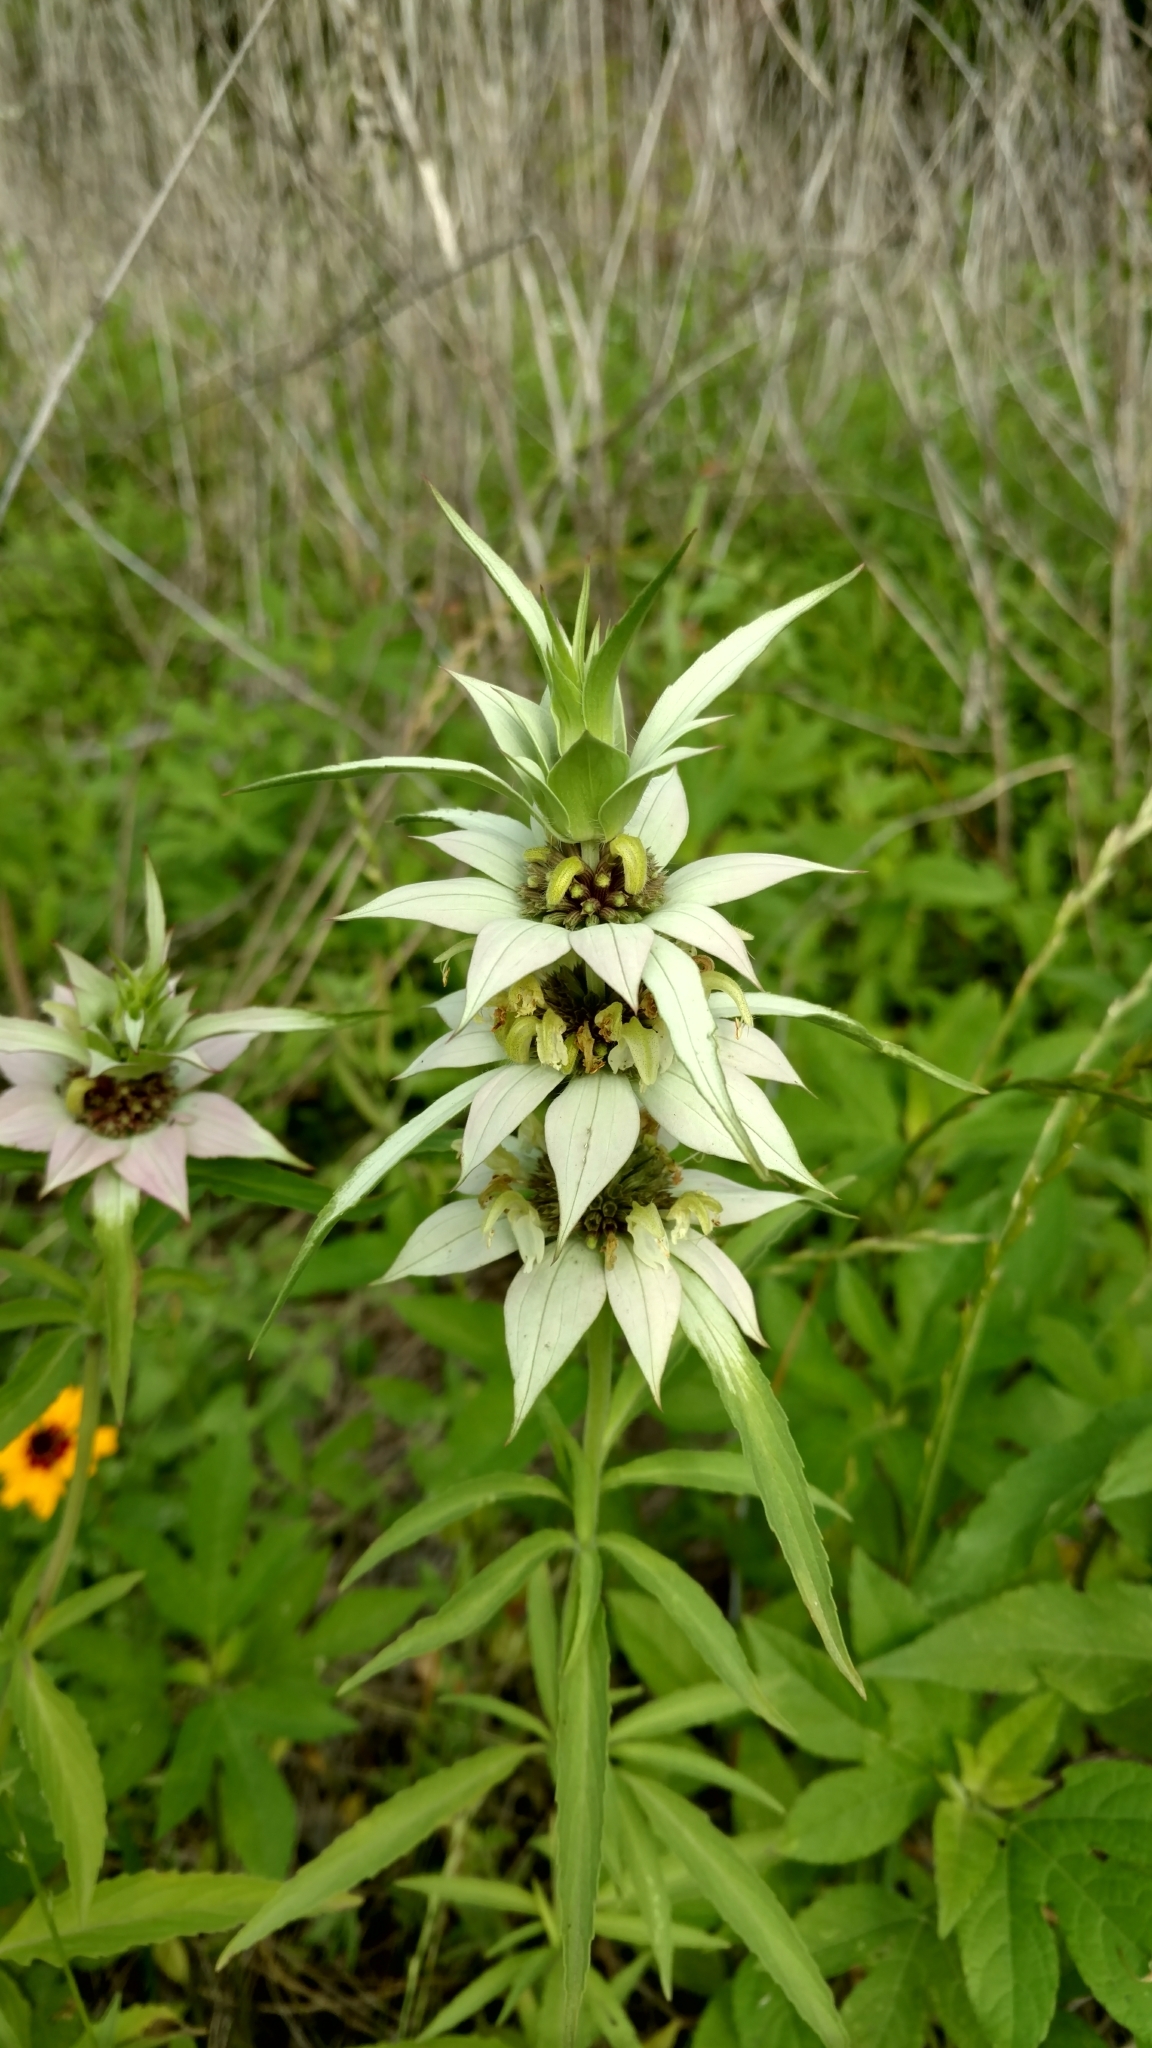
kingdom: Plantae
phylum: Tracheophyta
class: Magnoliopsida
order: Lamiales
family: Lamiaceae
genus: Monarda
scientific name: Monarda punctata
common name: Dotted monarda
